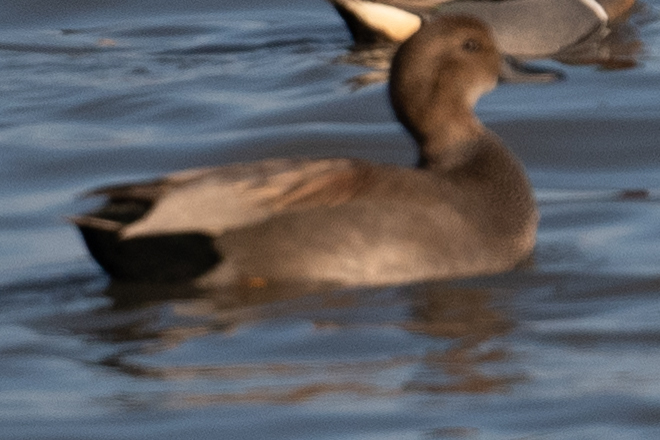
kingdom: Animalia
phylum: Chordata
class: Aves
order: Anseriformes
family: Anatidae
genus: Mareca
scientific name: Mareca strepera
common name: Gadwall
